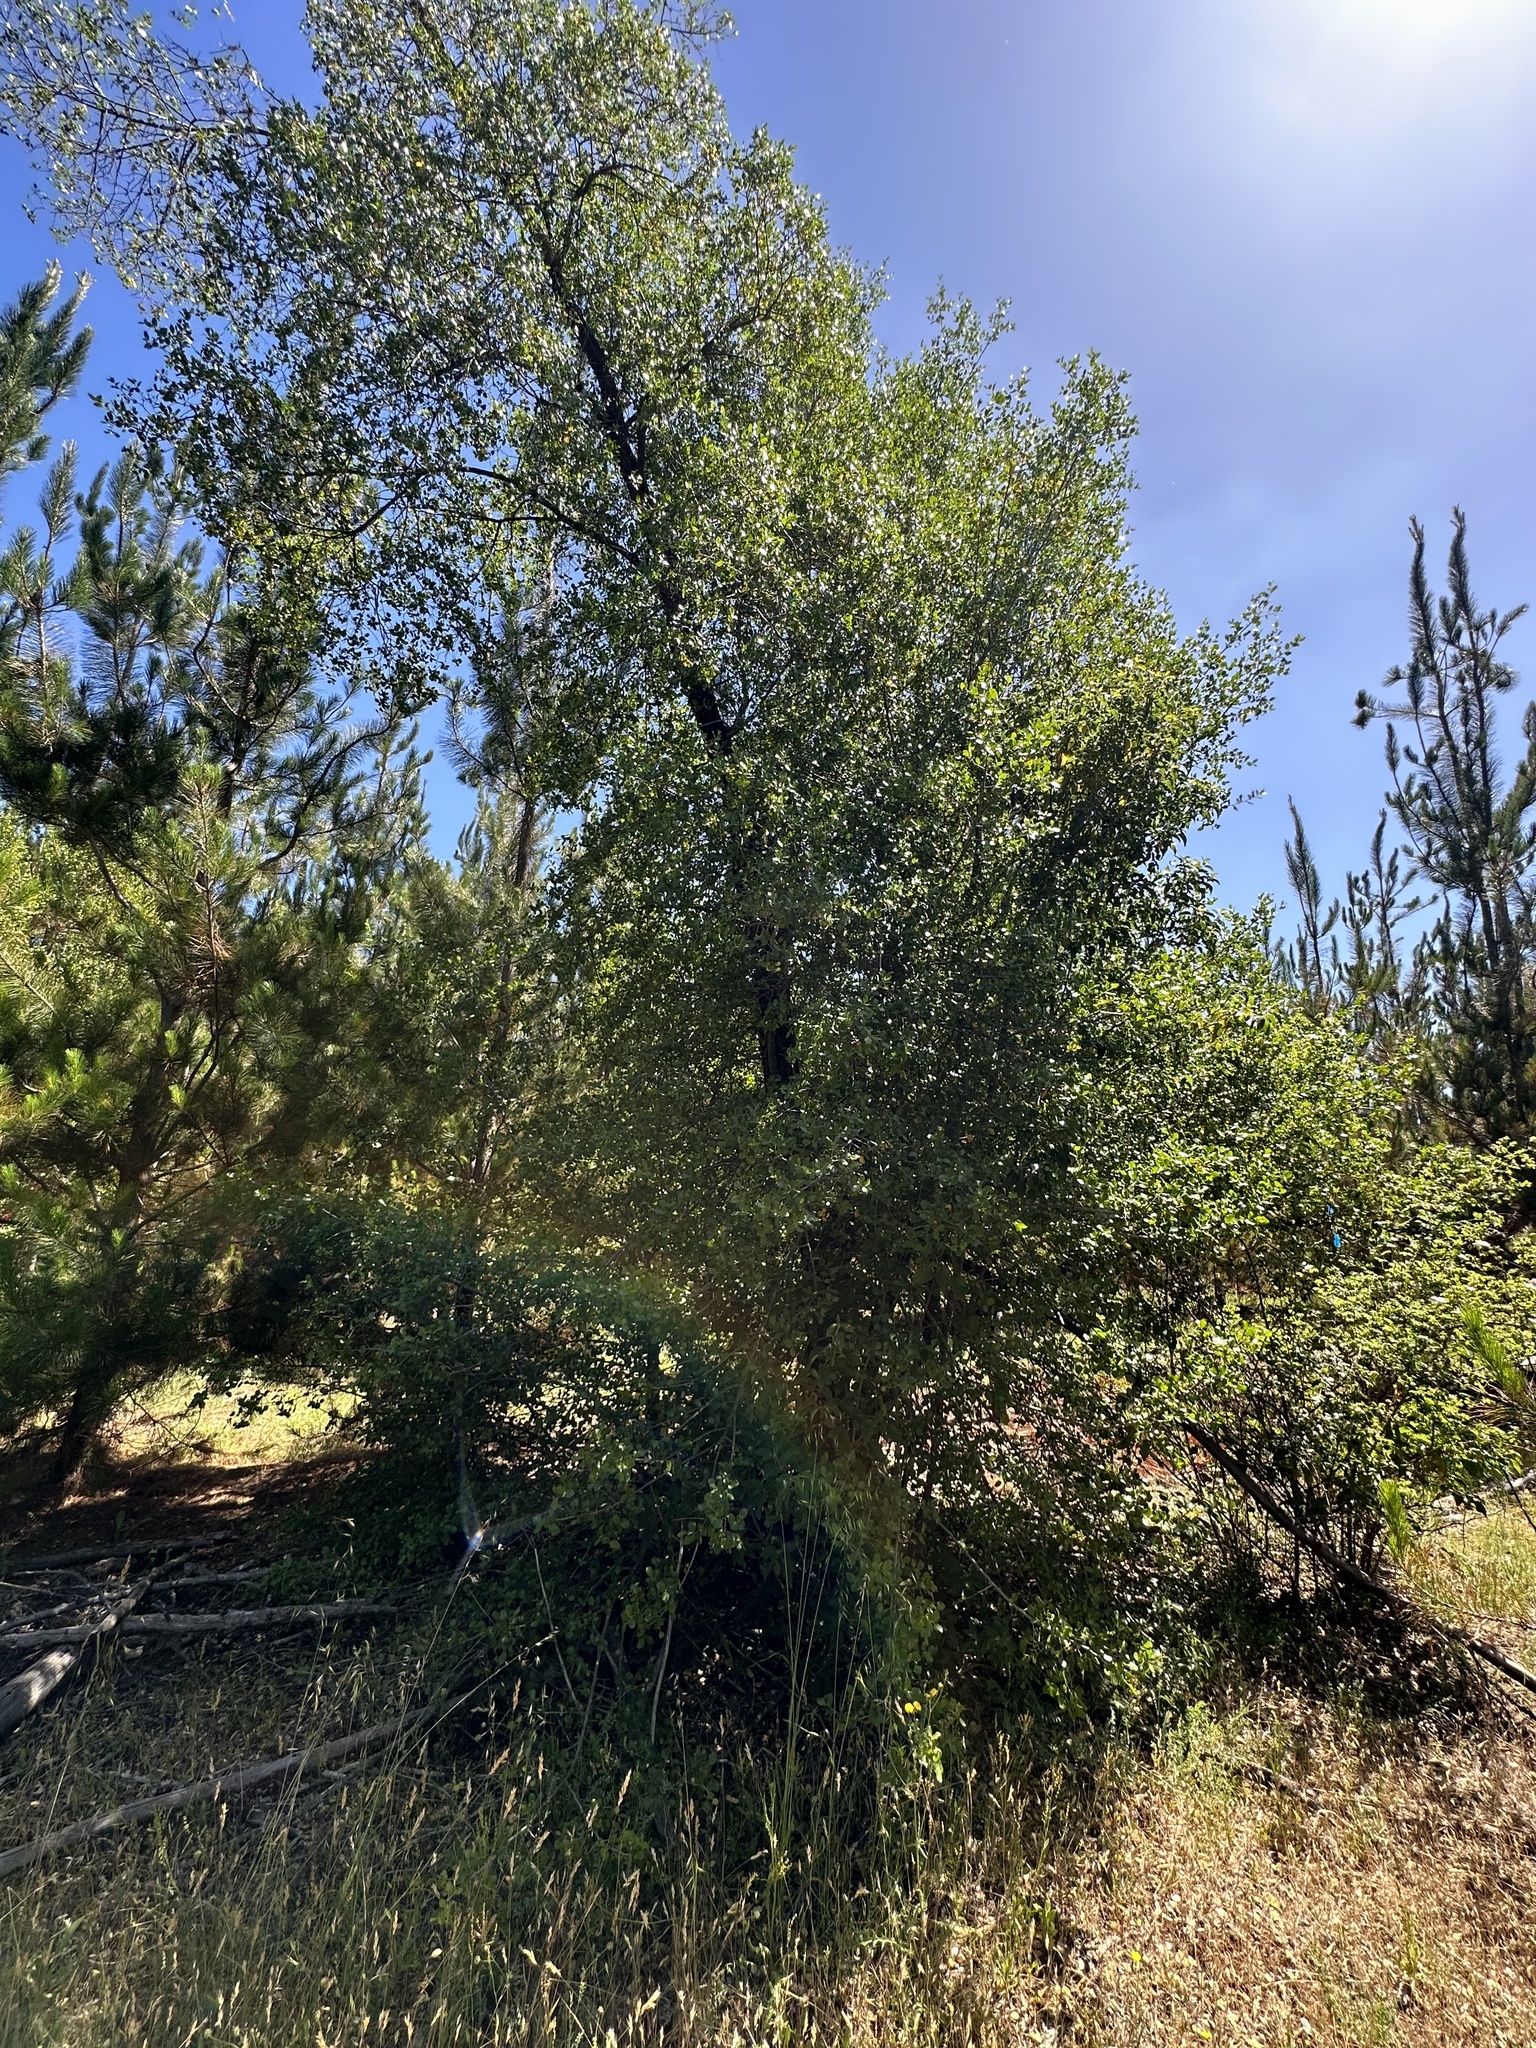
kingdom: Plantae
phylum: Tracheophyta
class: Magnoliopsida
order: Fabales
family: Quillajaceae
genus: Quillaja
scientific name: Quillaja saponaria
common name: Murillo's-bark
